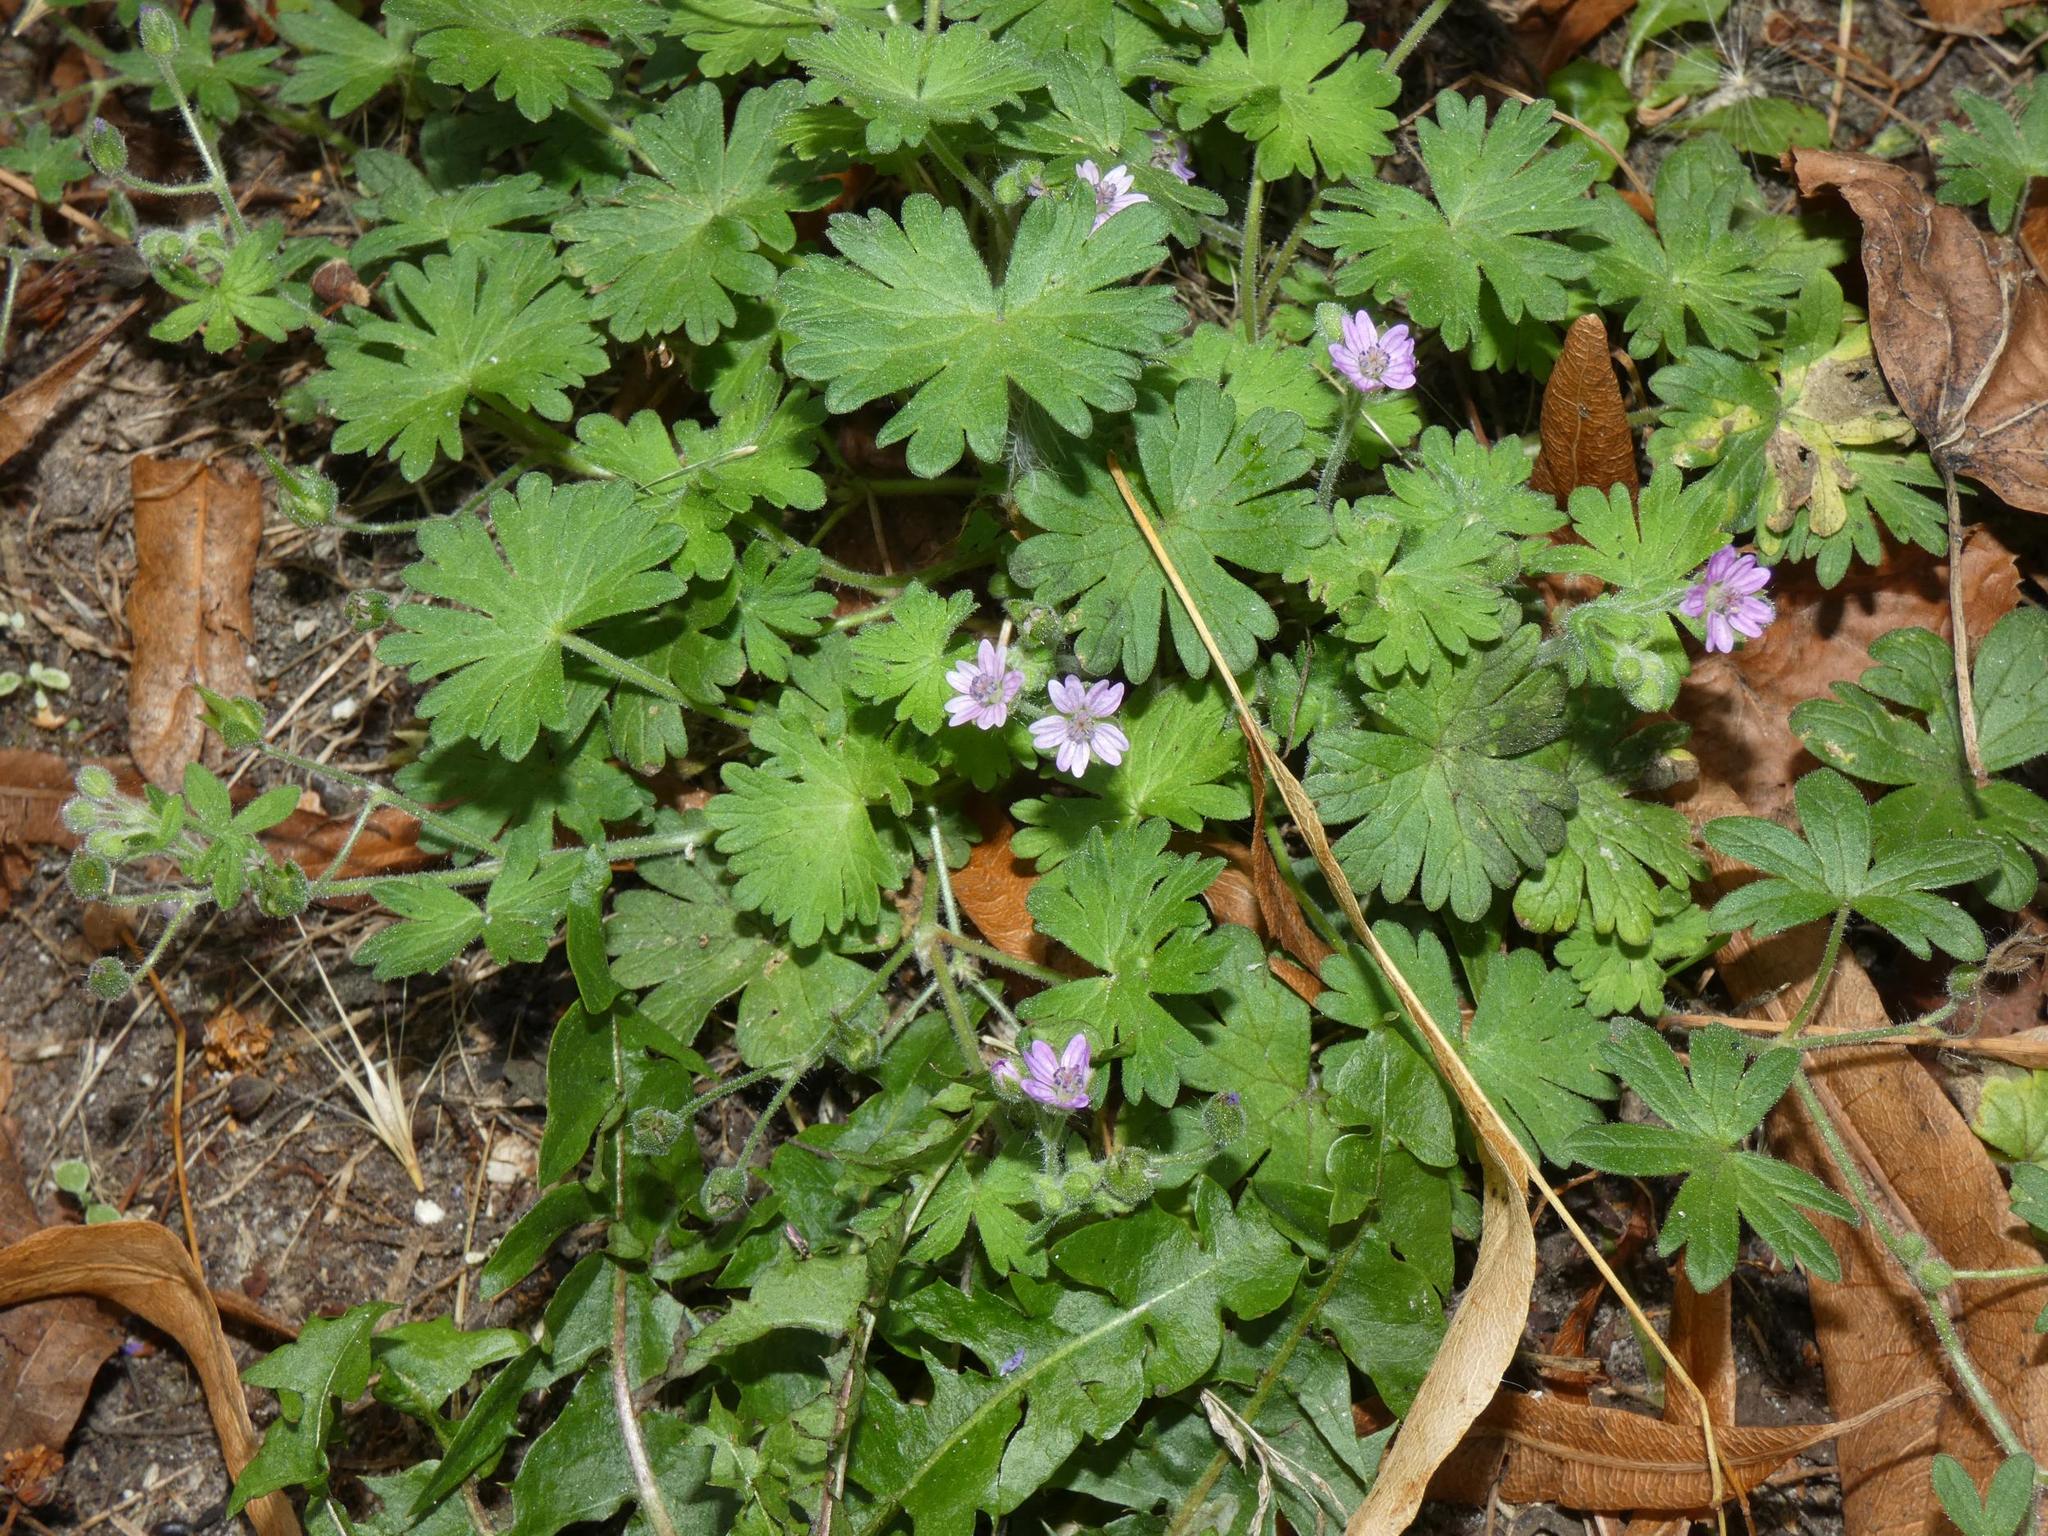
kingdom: Plantae
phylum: Tracheophyta
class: Magnoliopsida
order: Geraniales
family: Geraniaceae
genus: Geranium
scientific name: Geranium pusillum
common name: Small geranium
